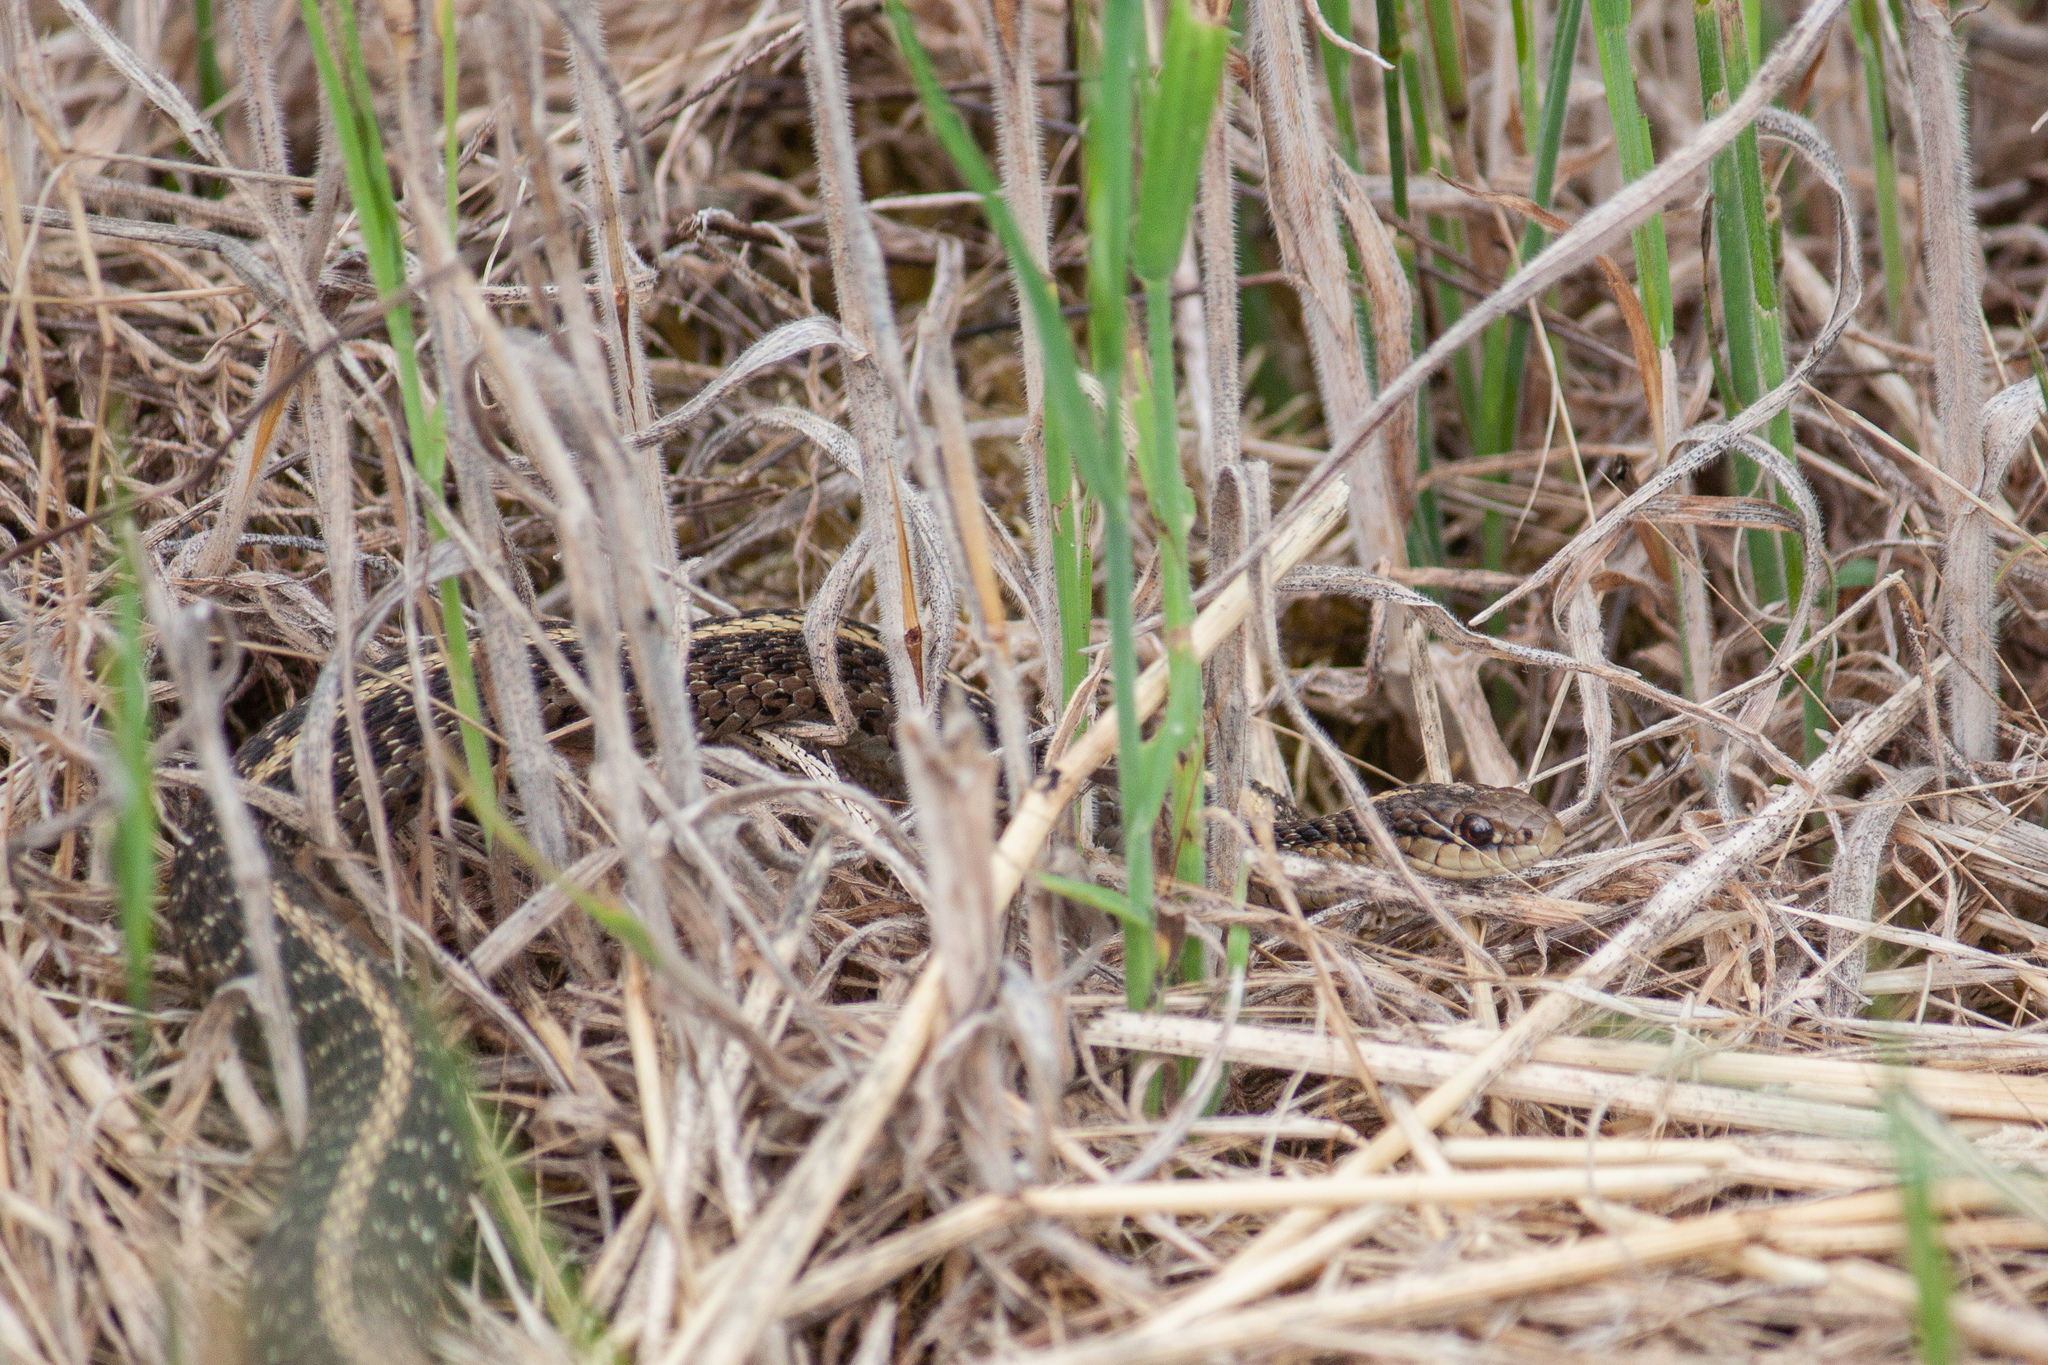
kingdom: Animalia
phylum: Chordata
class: Squamata
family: Colubridae
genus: Thamnophis
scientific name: Thamnophis ordinoides
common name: Northwestern garter snake
